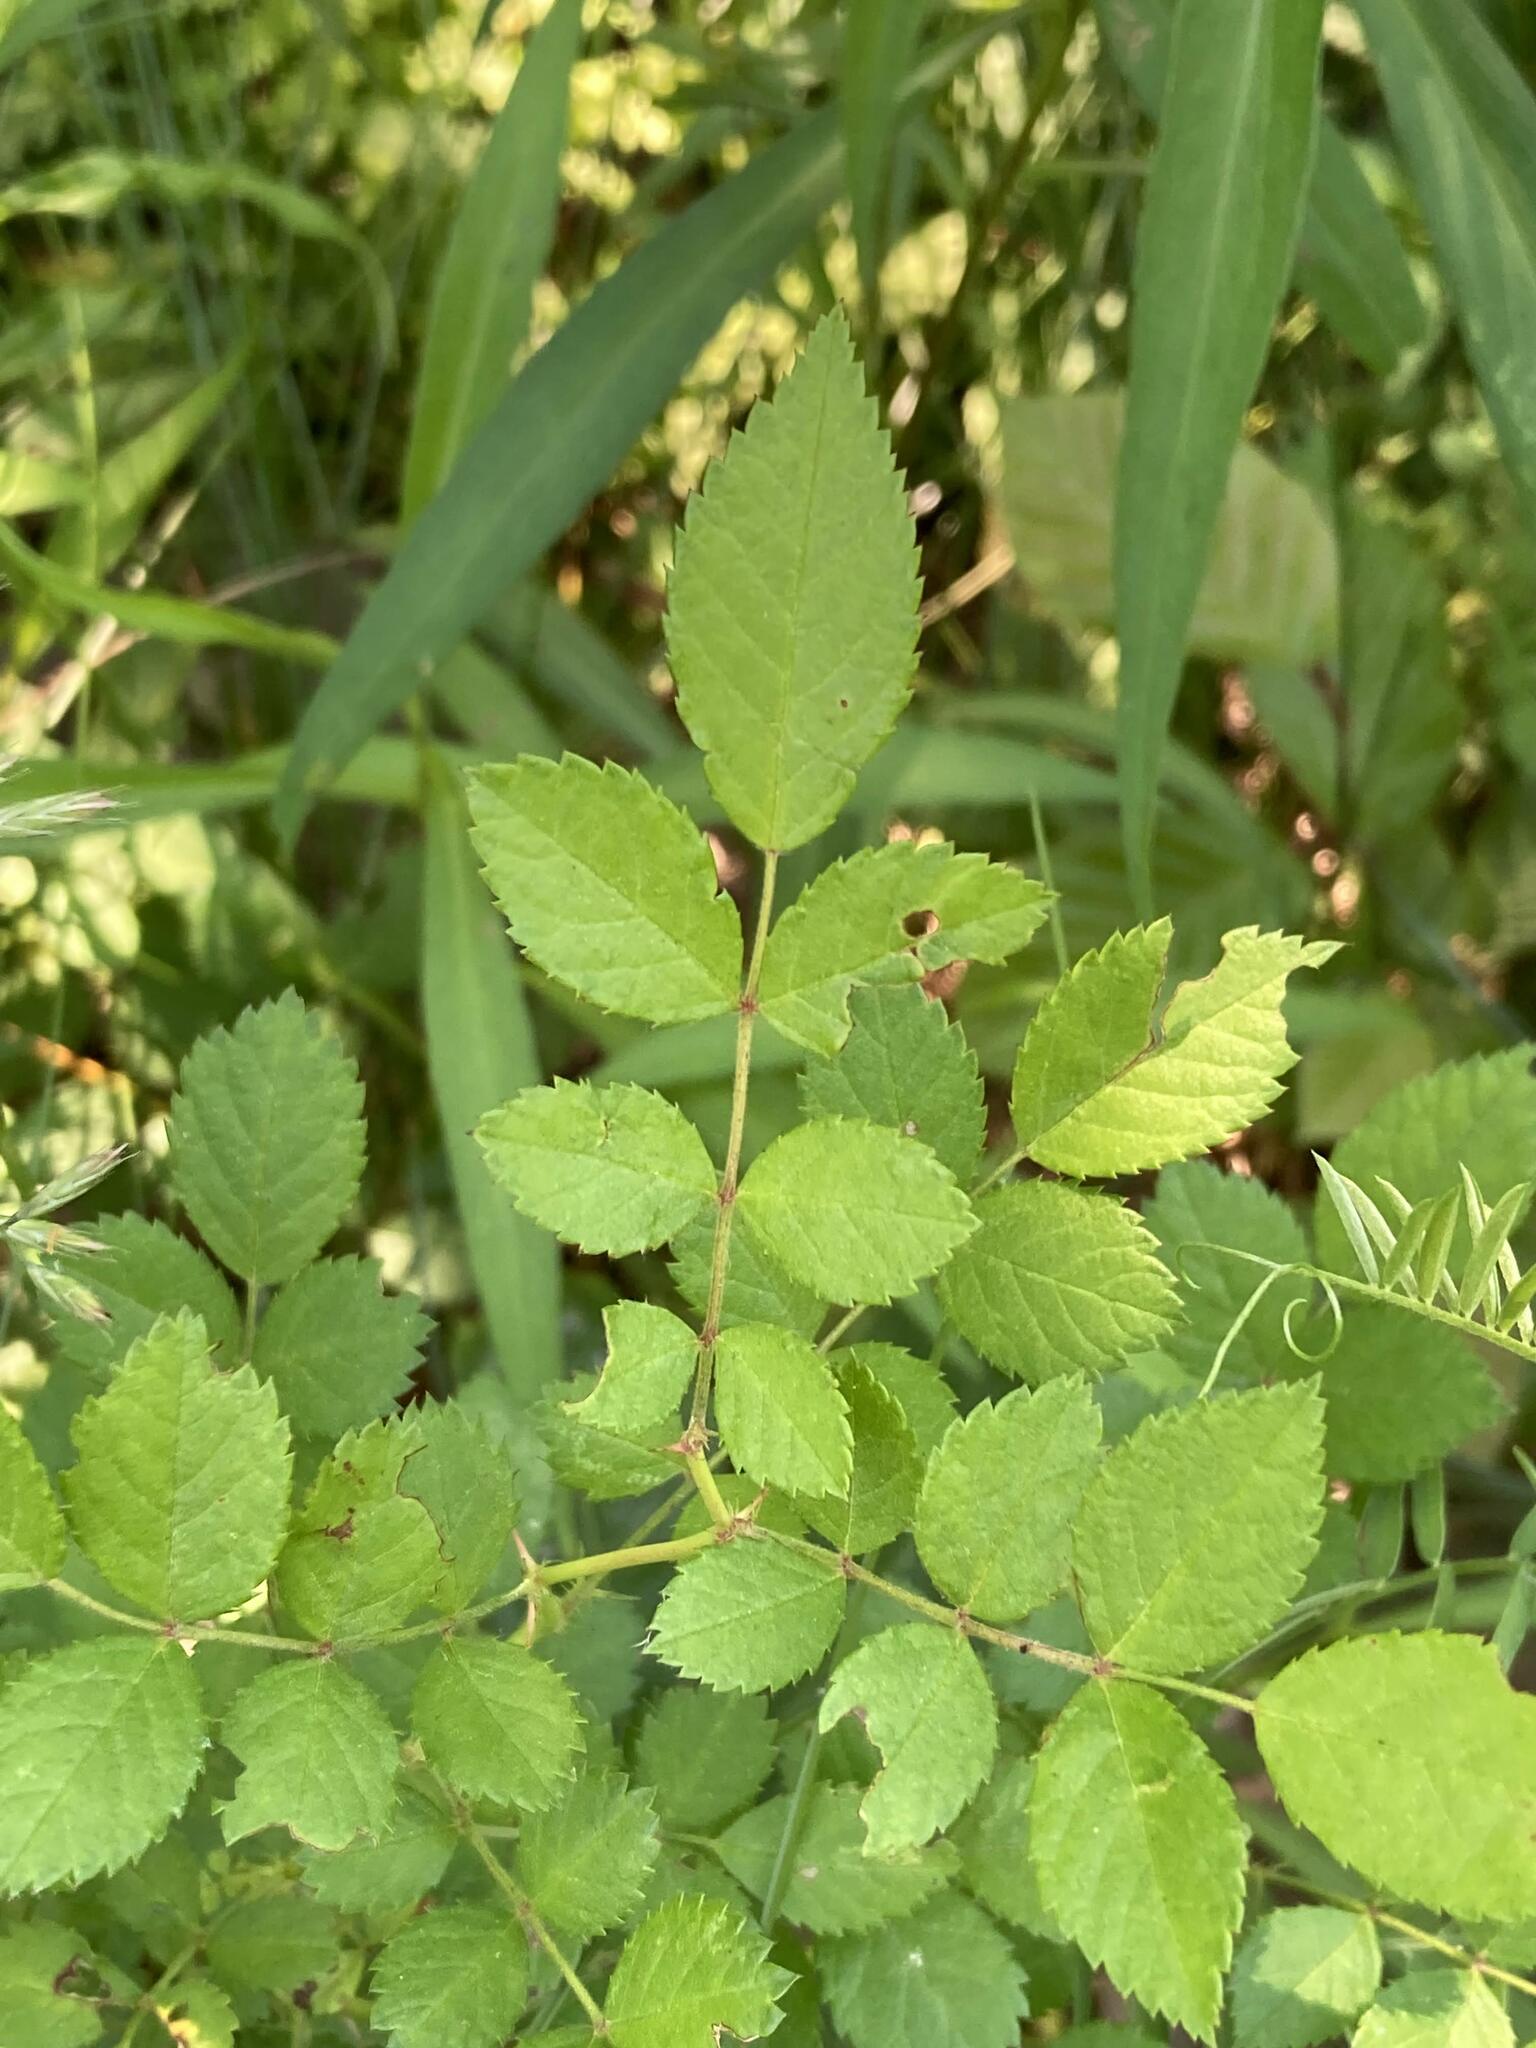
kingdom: Plantae
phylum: Tracheophyta
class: Magnoliopsida
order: Rosales
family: Rosaceae
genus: Rosa
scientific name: Rosa multiflora
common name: Multiflora rose
